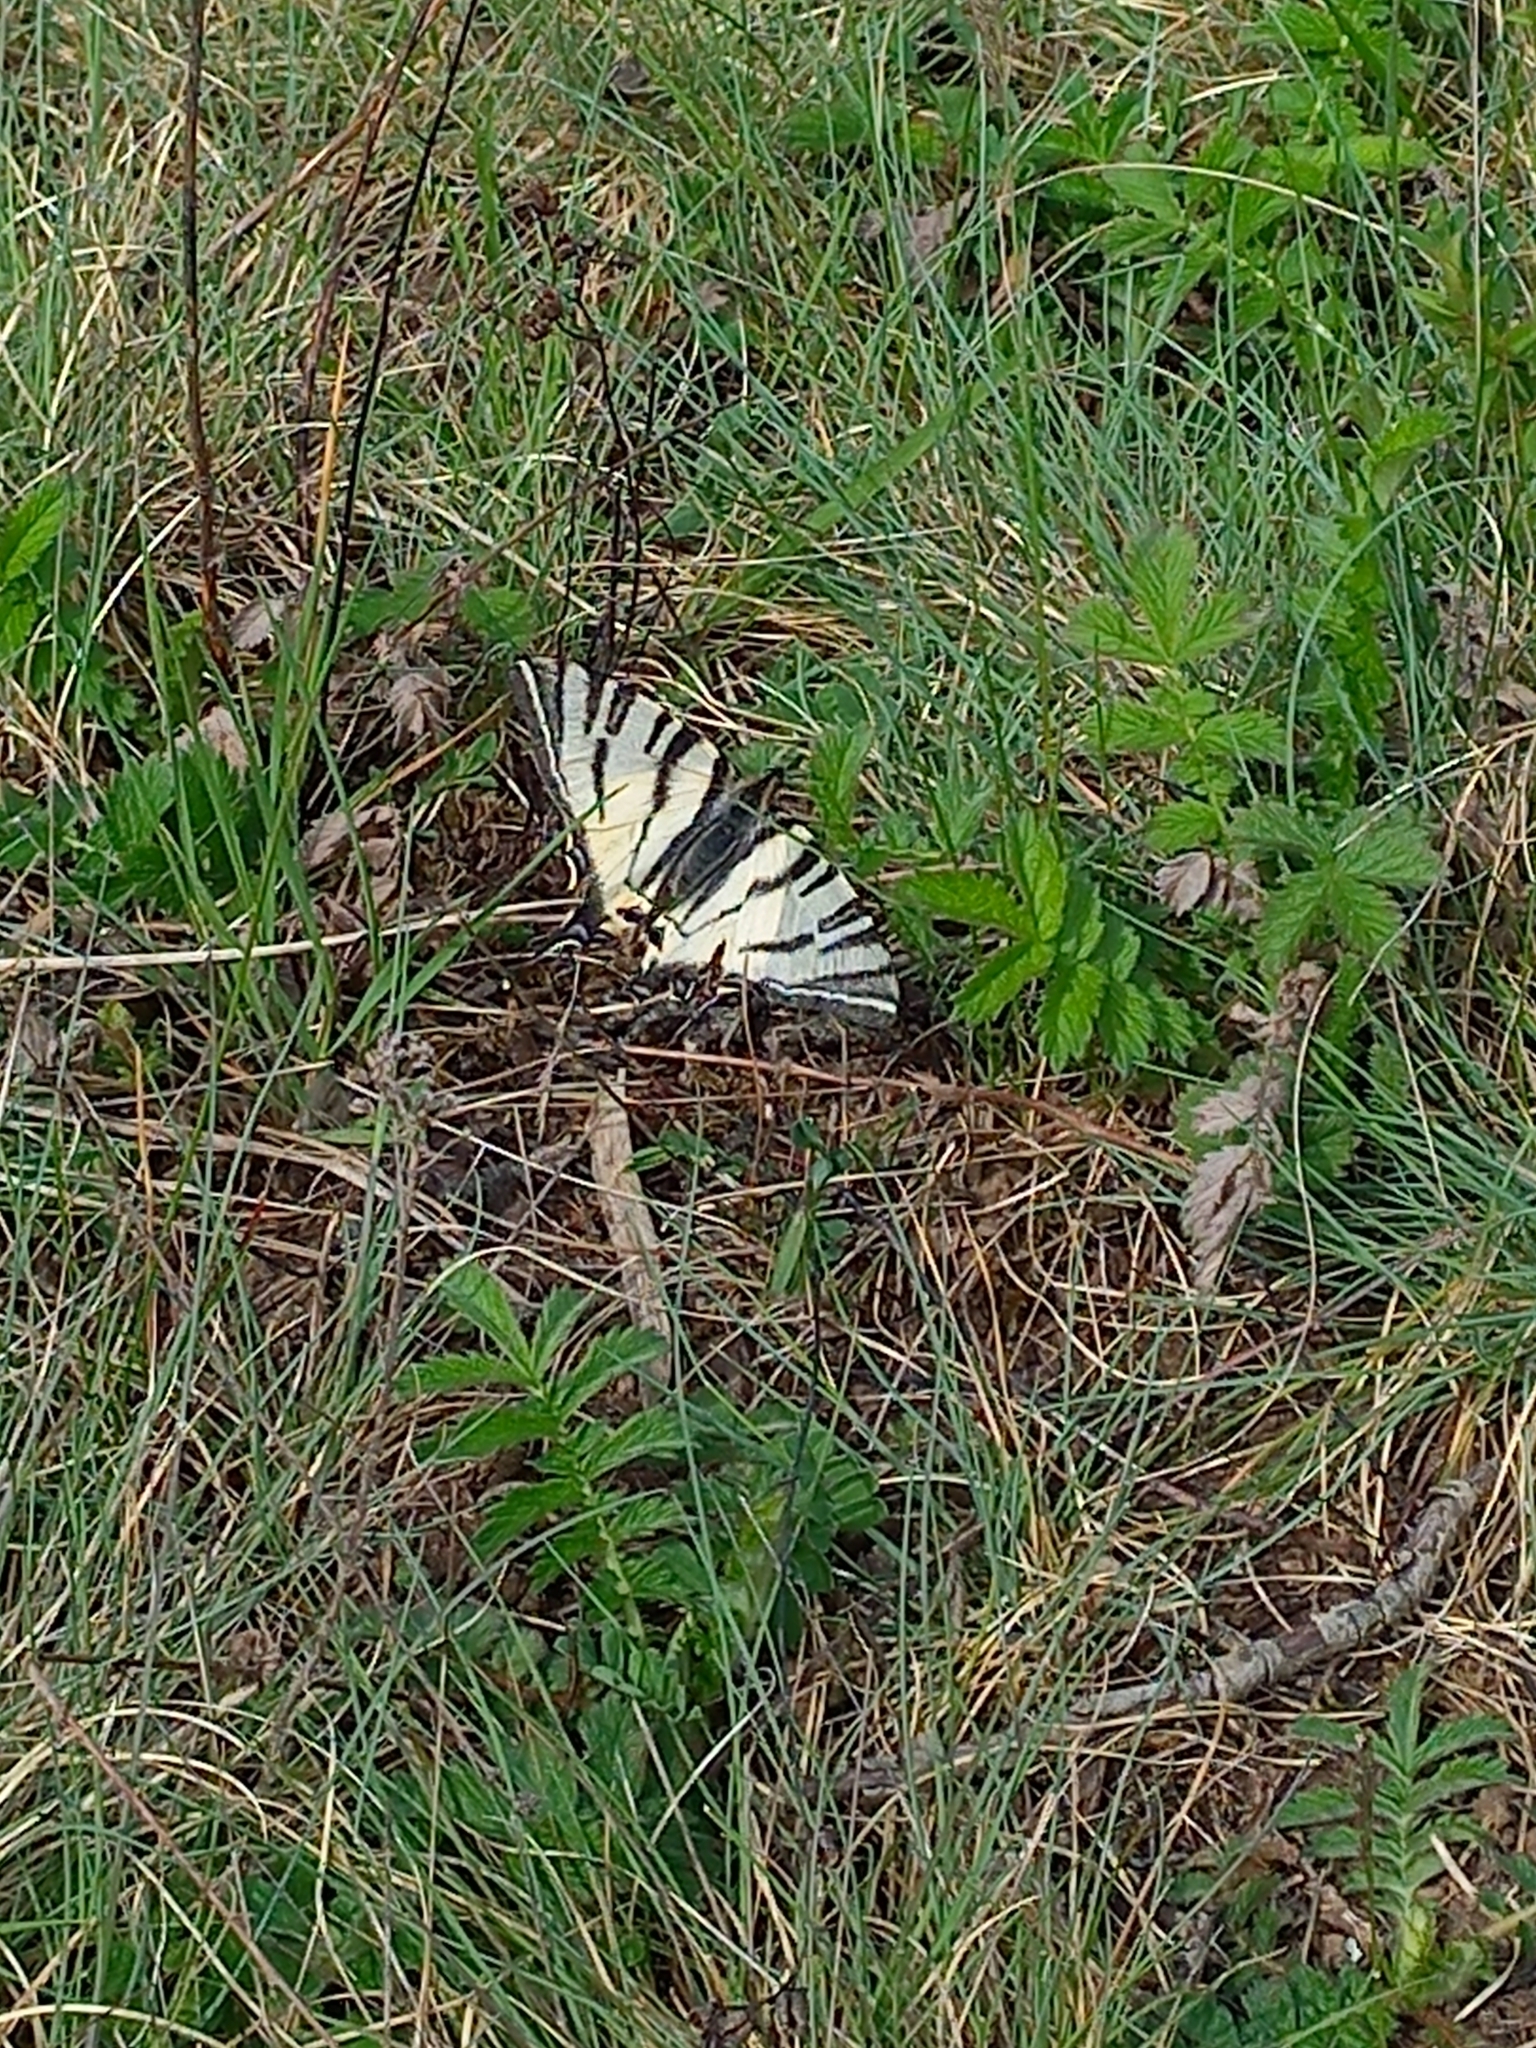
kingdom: Animalia
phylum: Arthropoda
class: Insecta
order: Lepidoptera
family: Papilionidae
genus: Iphiclides
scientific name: Iphiclides podalirius
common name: Scarce swallowtail
